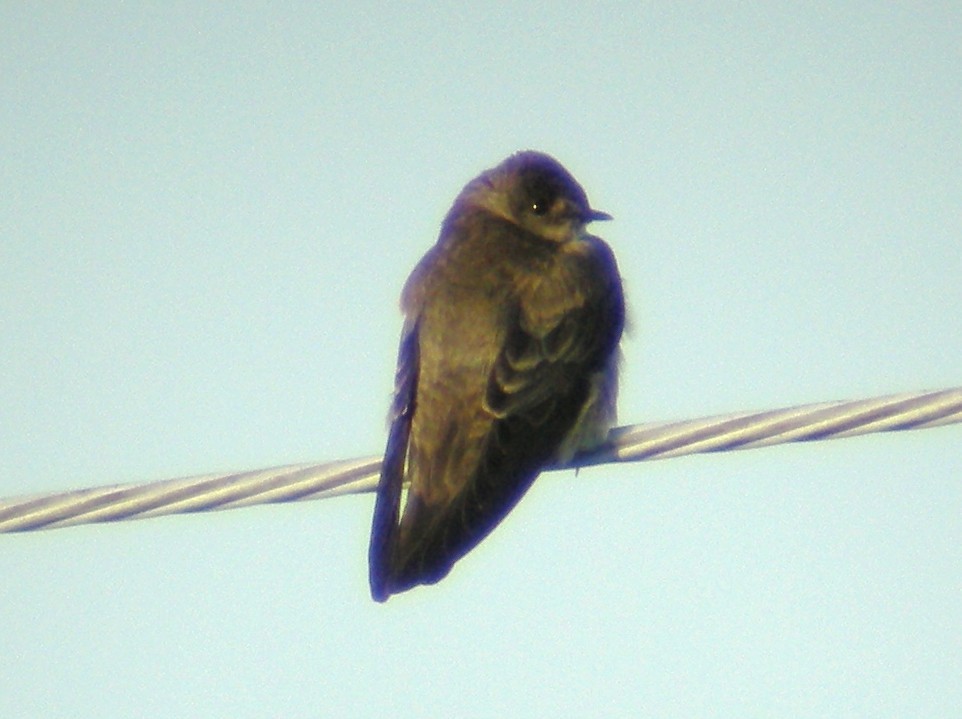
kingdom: Animalia
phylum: Chordata
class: Aves
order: Passeriformes
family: Hirundinidae
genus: Stelgidopteryx
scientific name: Stelgidopteryx serripennis
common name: Northern rough-winged swallow
